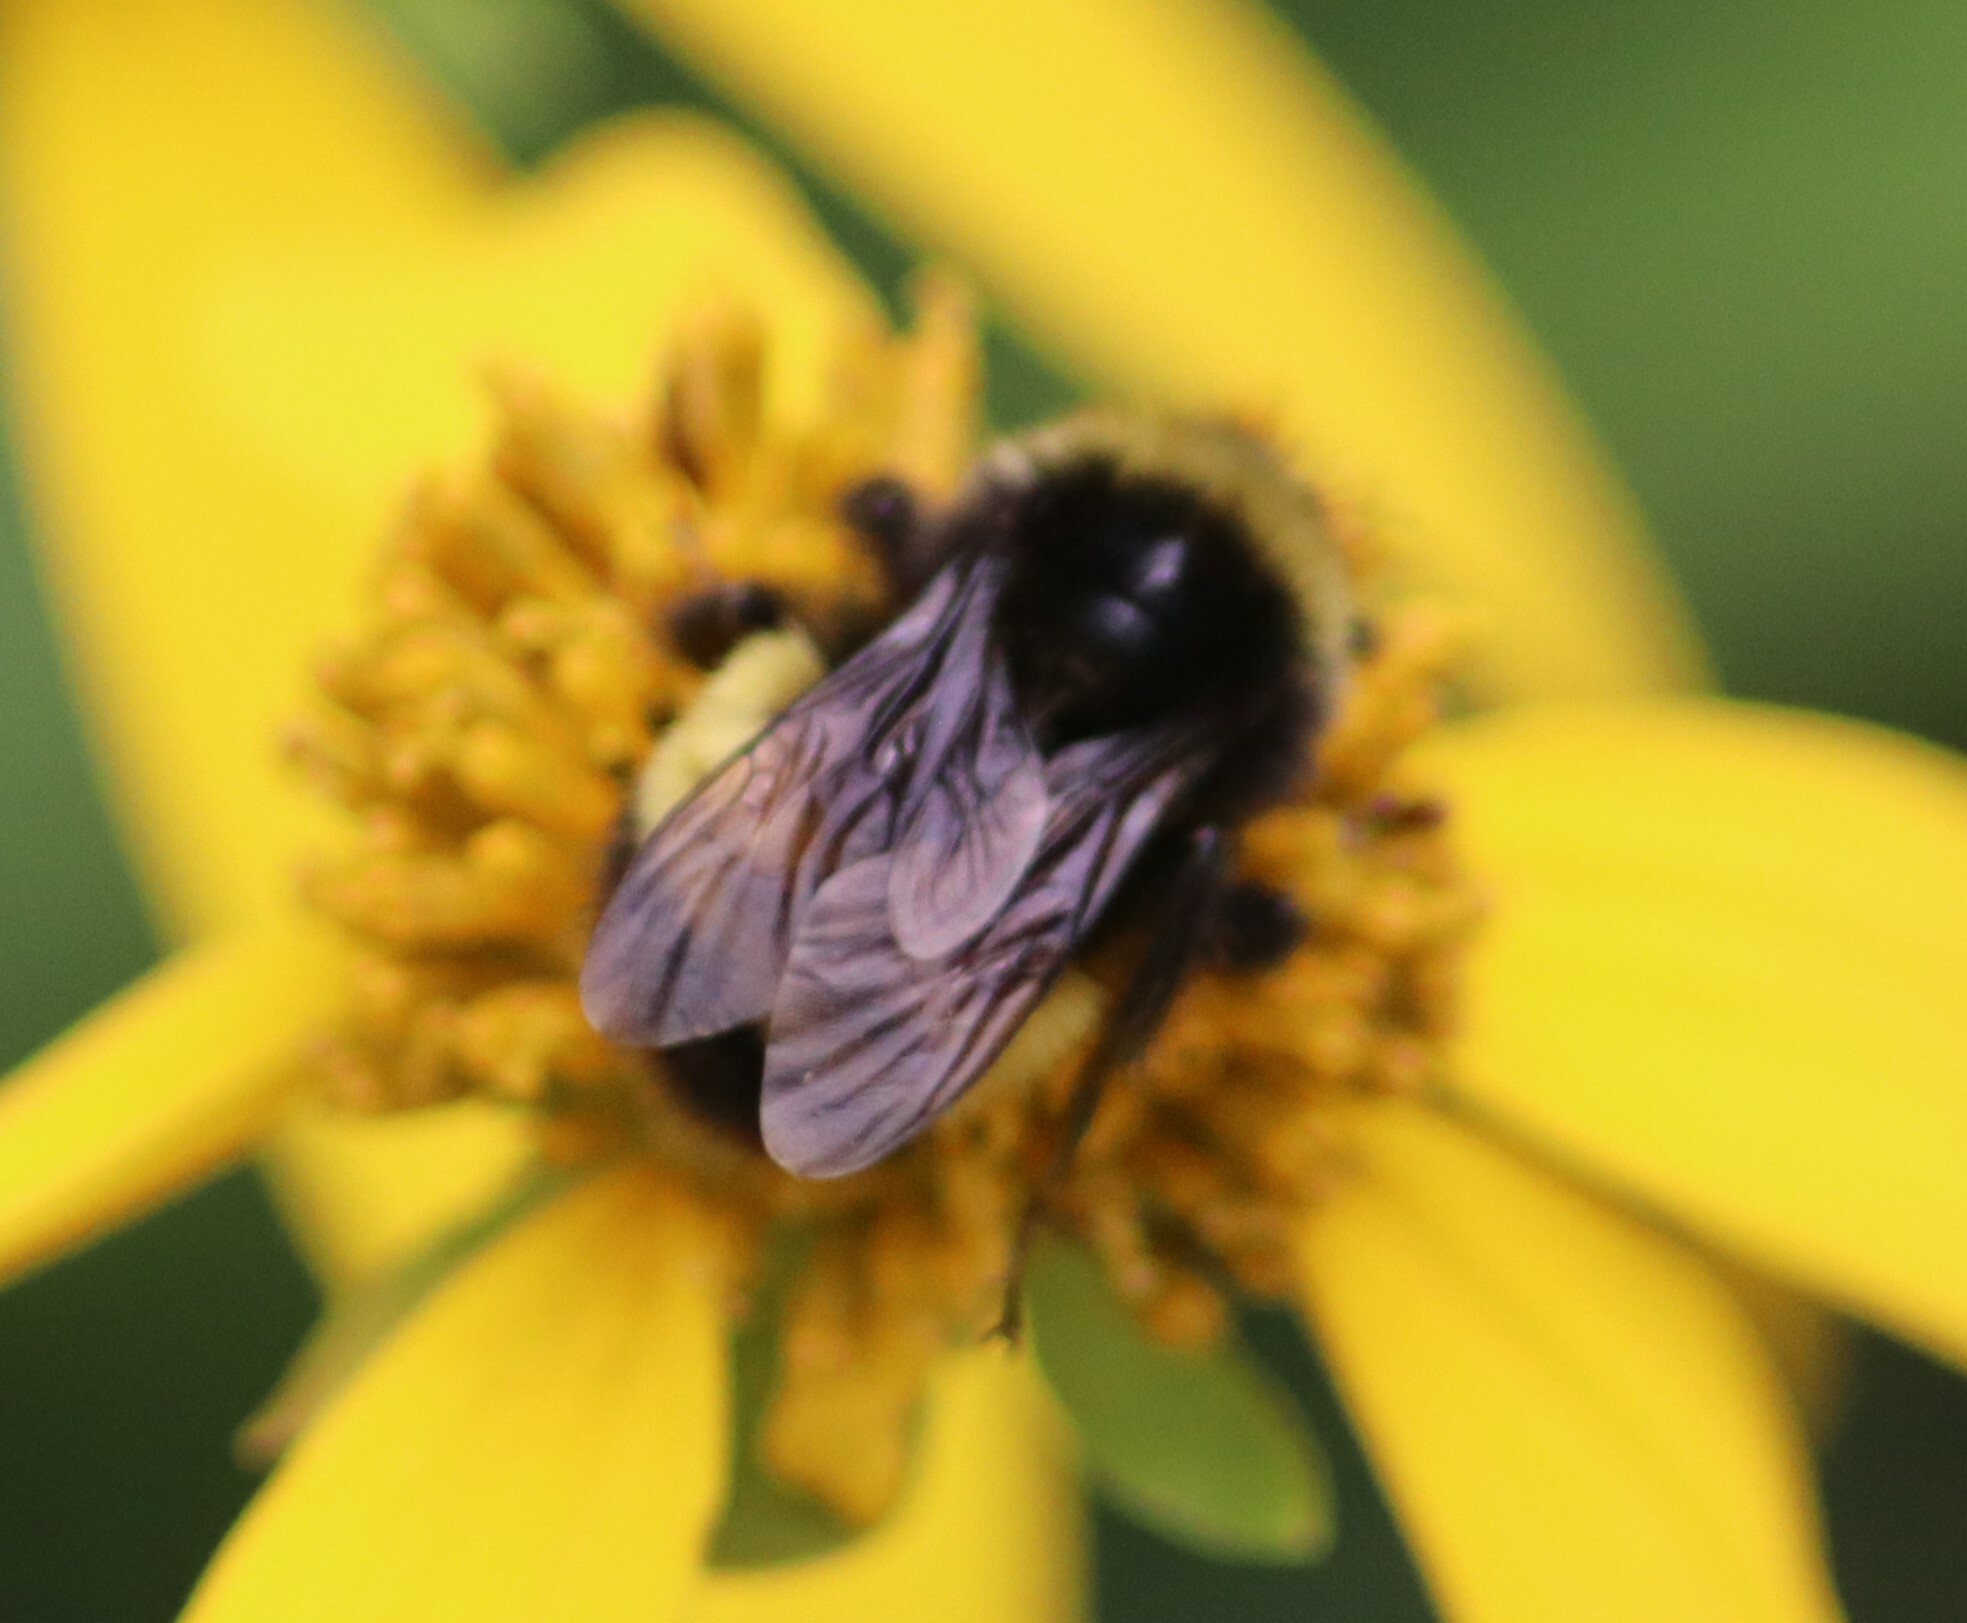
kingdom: Animalia
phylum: Arthropoda
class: Insecta
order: Hymenoptera
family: Apidae
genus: Bombus
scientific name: Bombus terricola
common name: Yellow-banded bumble bee
